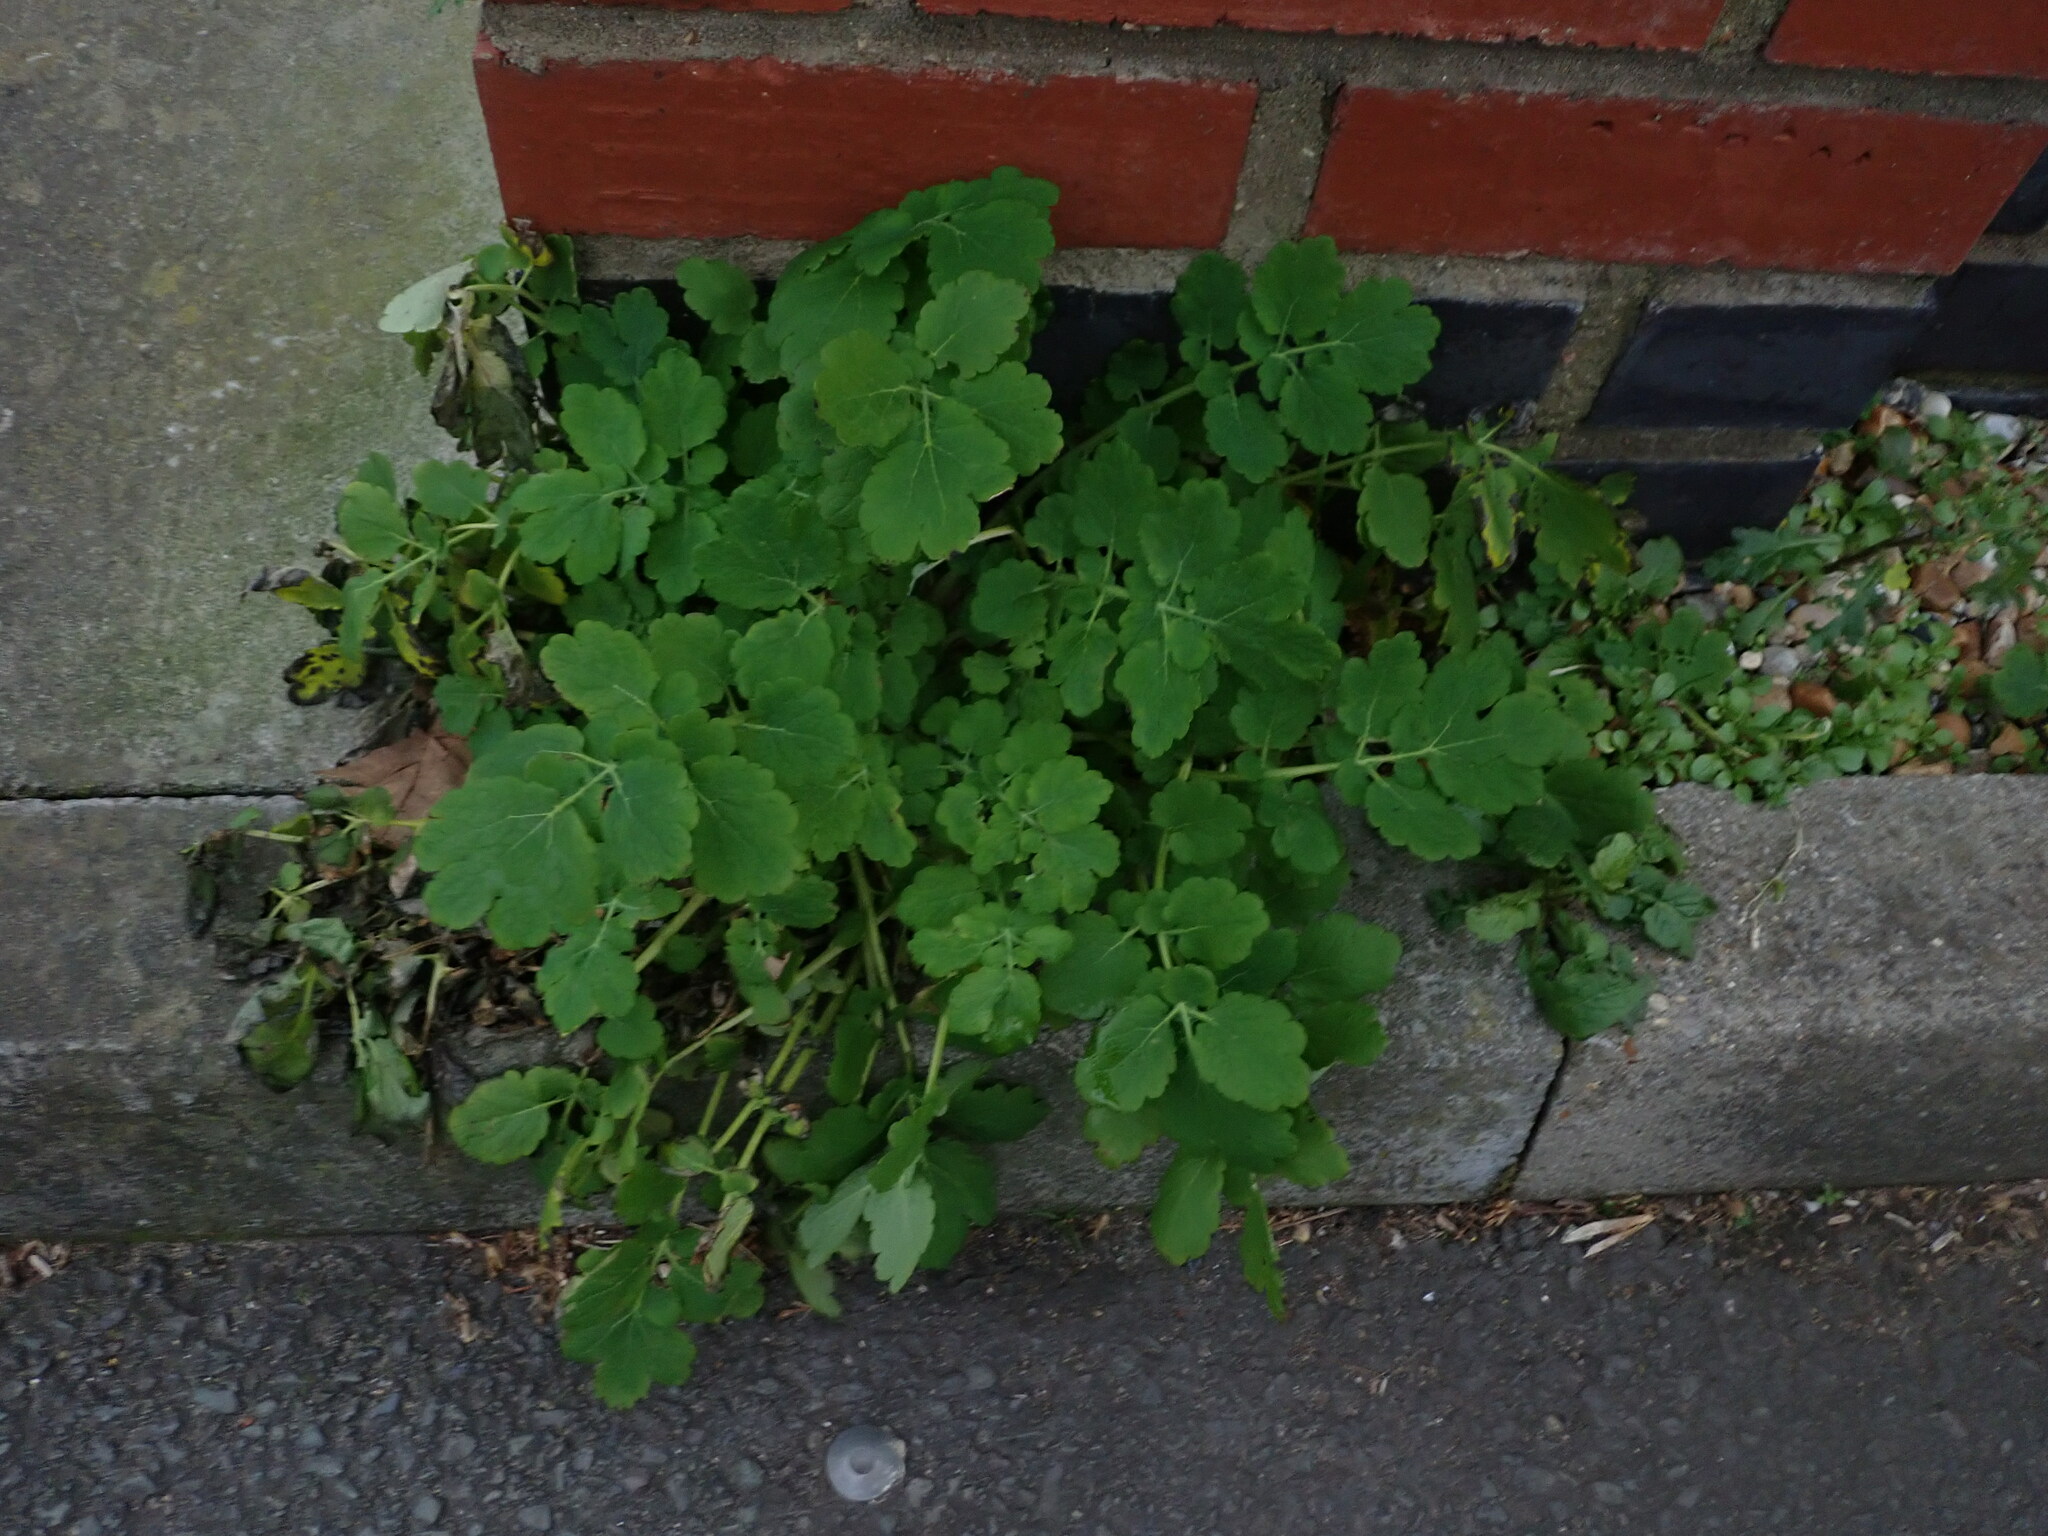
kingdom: Plantae
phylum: Tracheophyta
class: Magnoliopsida
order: Ranunculales
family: Papaveraceae
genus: Chelidonium
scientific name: Chelidonium majus
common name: Greater celandine
